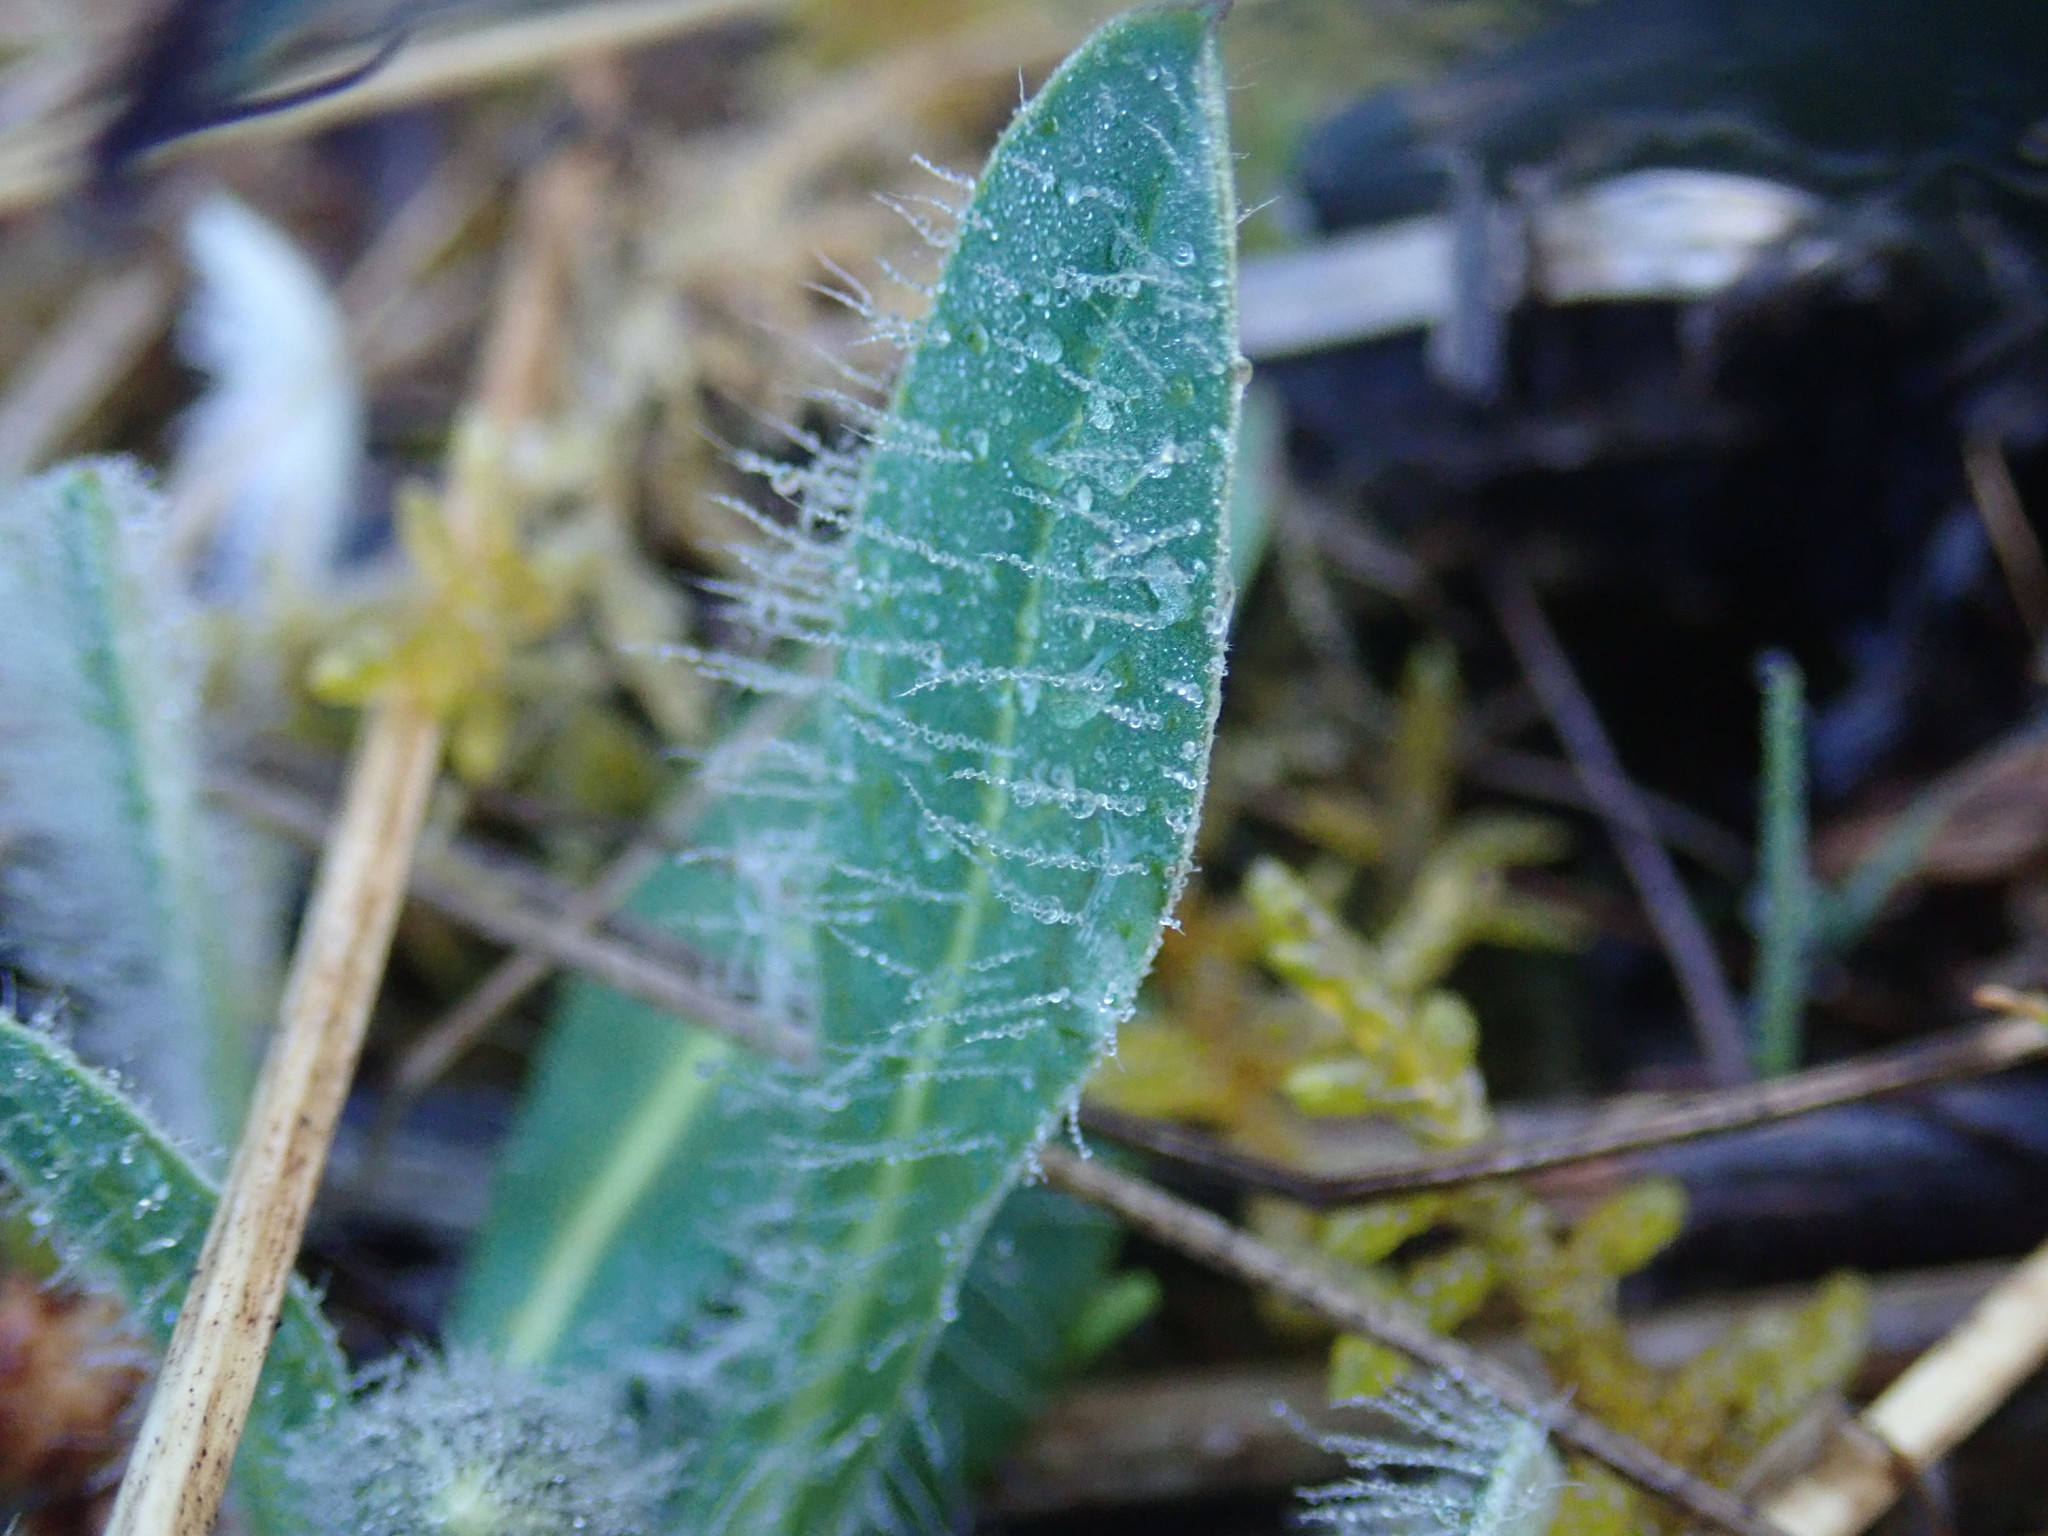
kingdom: Plantae
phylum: Tracheophyta
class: Magnoliopsida
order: Asterales
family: Asteraceae
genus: Pilosella
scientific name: Pilosella officinarum
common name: Mouse-ear hawkweed
